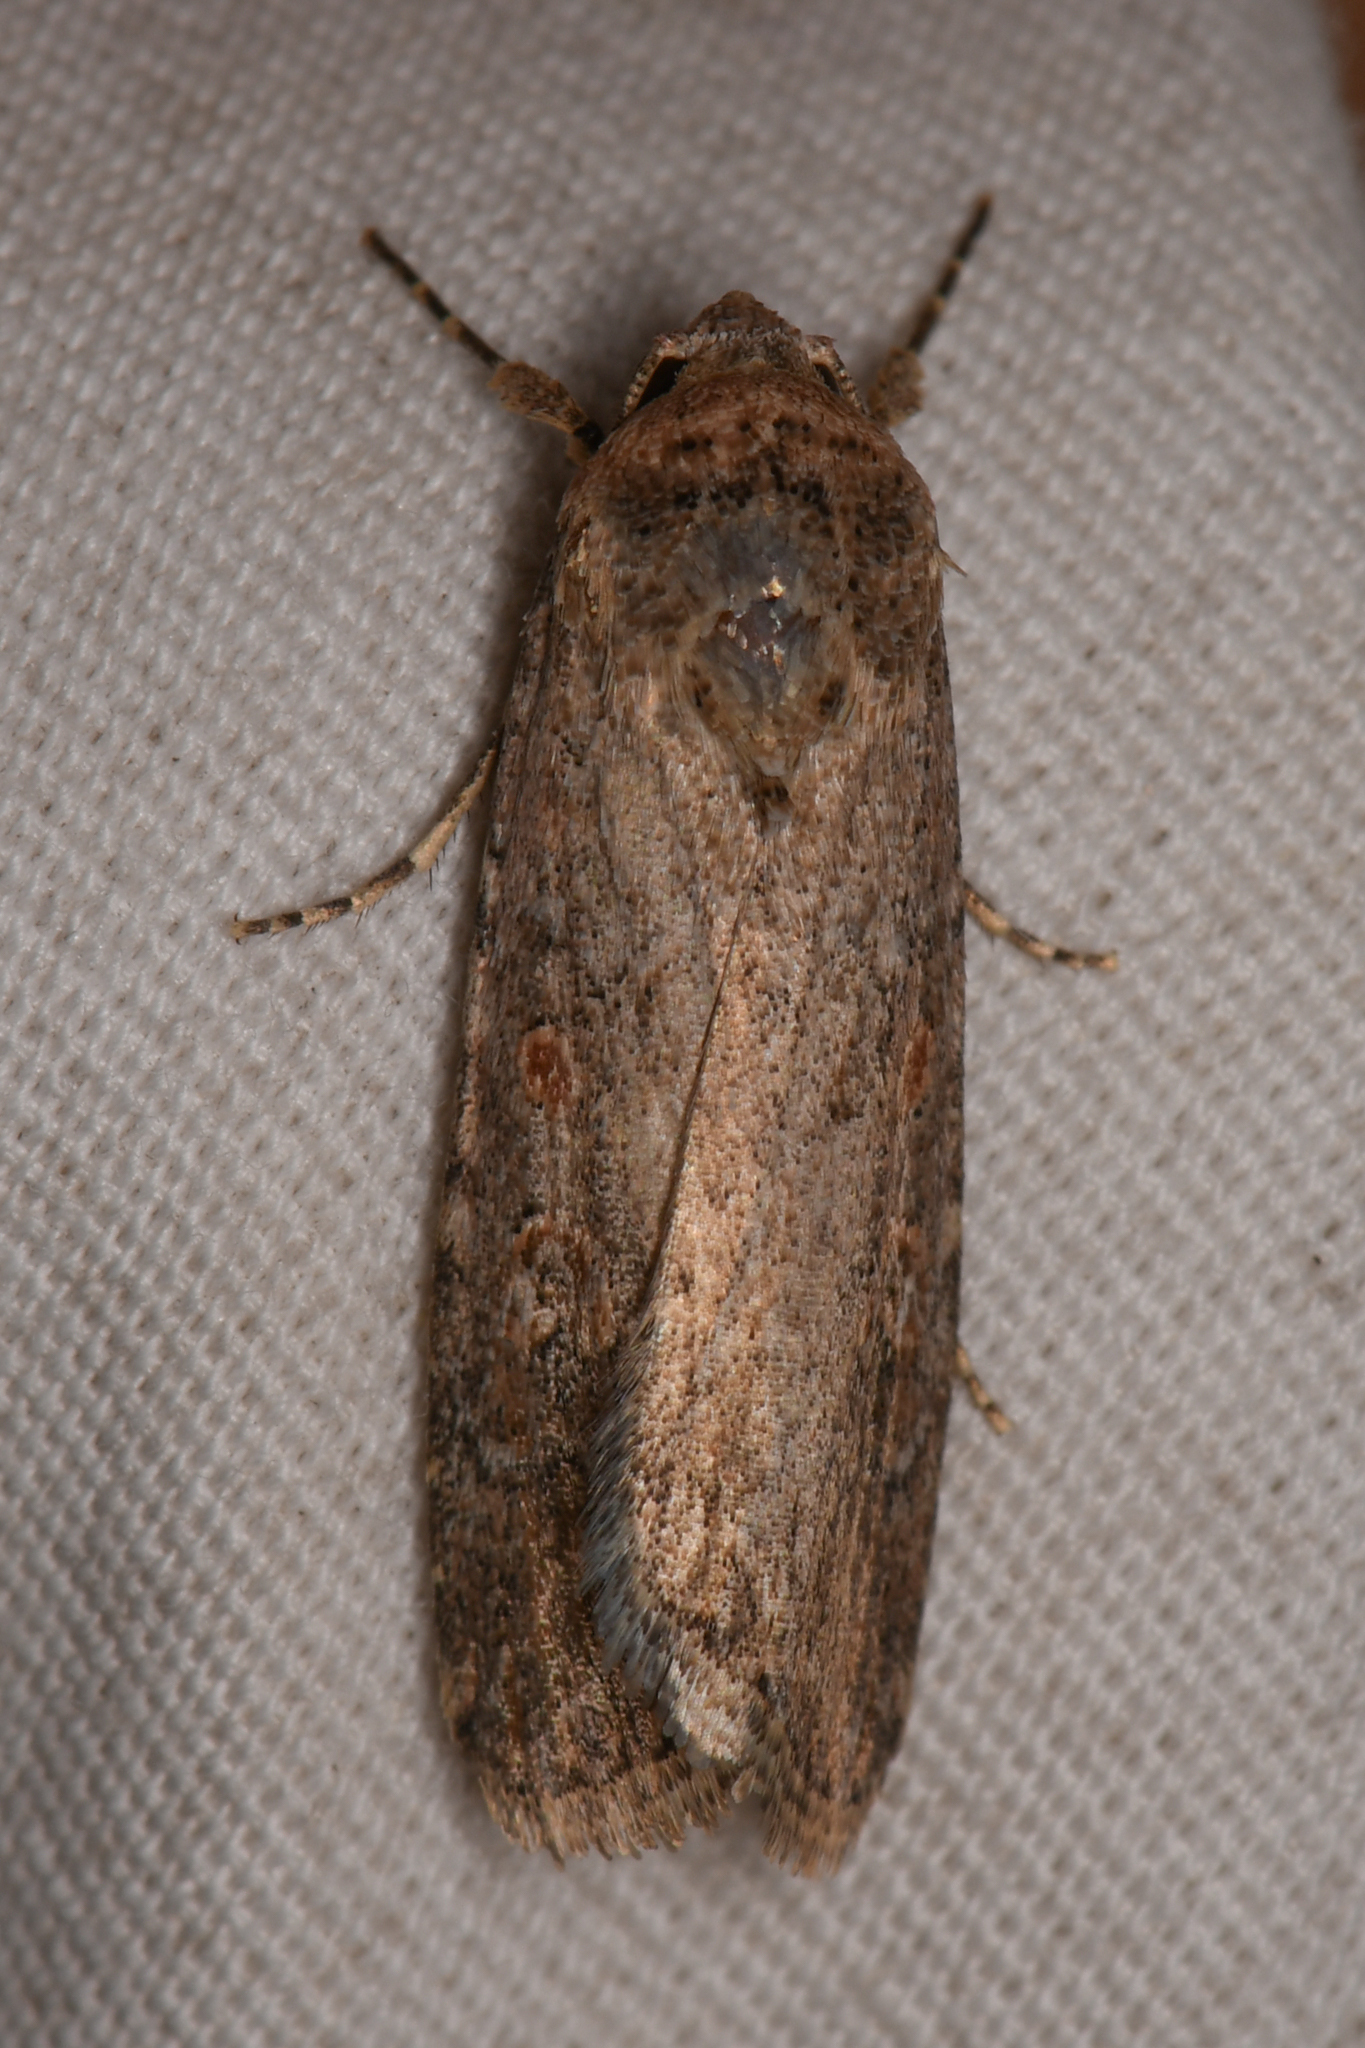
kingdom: Animalia
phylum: Arthropoda
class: Insecta
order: Lepidoptera
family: Noctuidae
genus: Spodoptera
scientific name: Spodoptera exigua
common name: Beet armyworm
